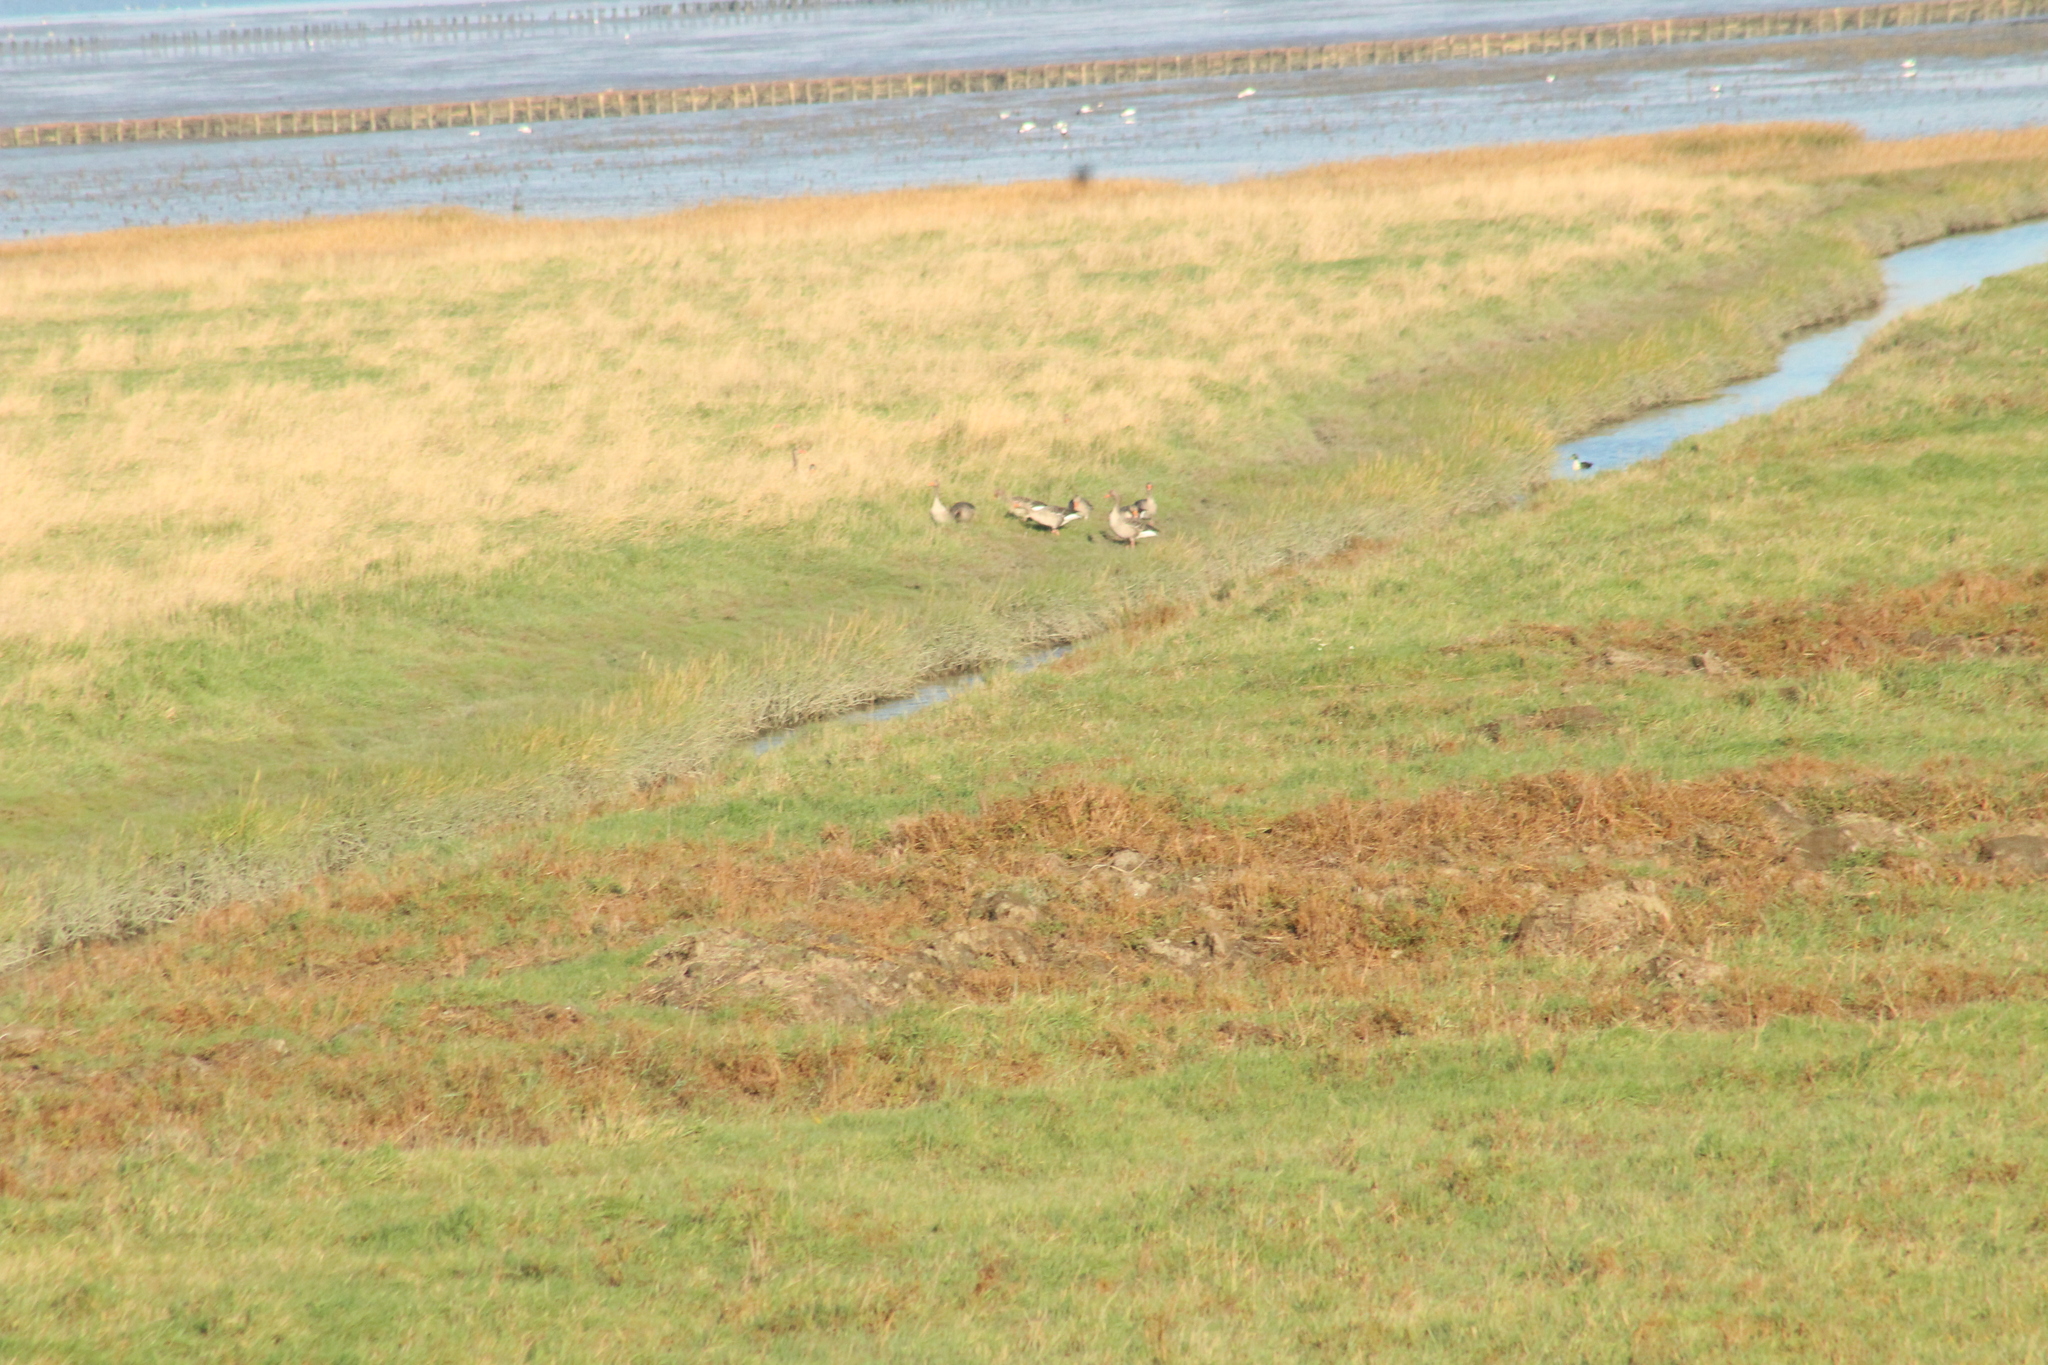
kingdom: Animalia
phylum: Chordata
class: Aves
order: Anseriformes
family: Anatidae
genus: Anser
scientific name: Anser anser
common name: Greylag goose
